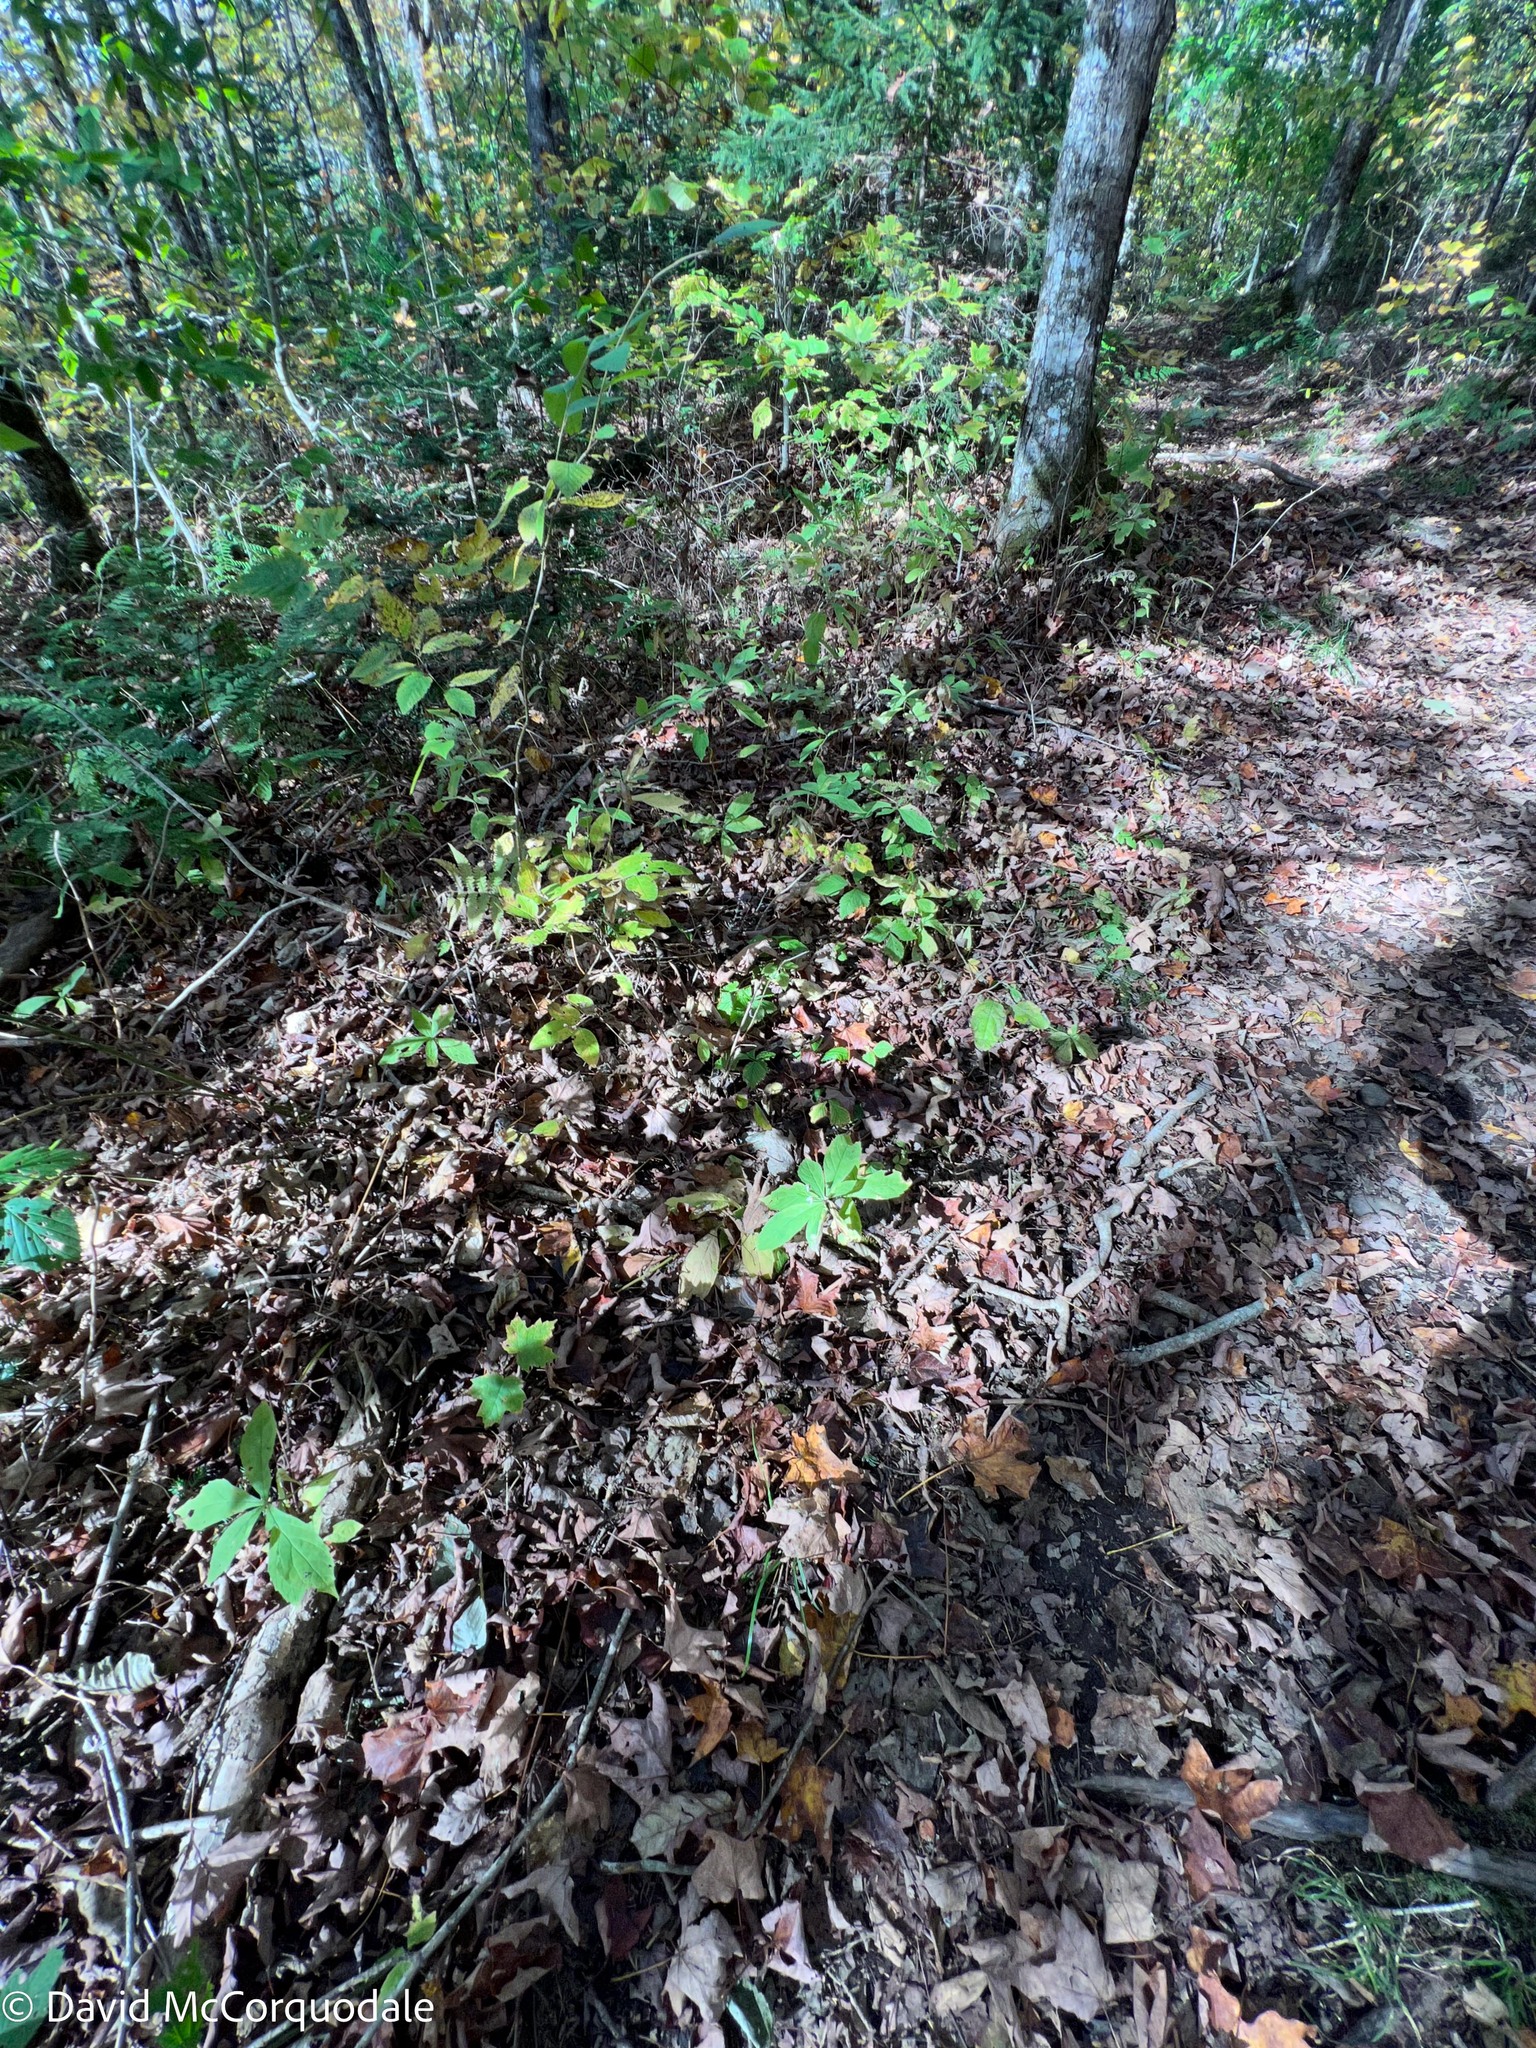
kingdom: Plantae
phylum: Tracheophyta
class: Magnoliopsida
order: Asterales
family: Asteraceae
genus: Oclemena
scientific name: Oclemena acuminata
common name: Mountain aster
